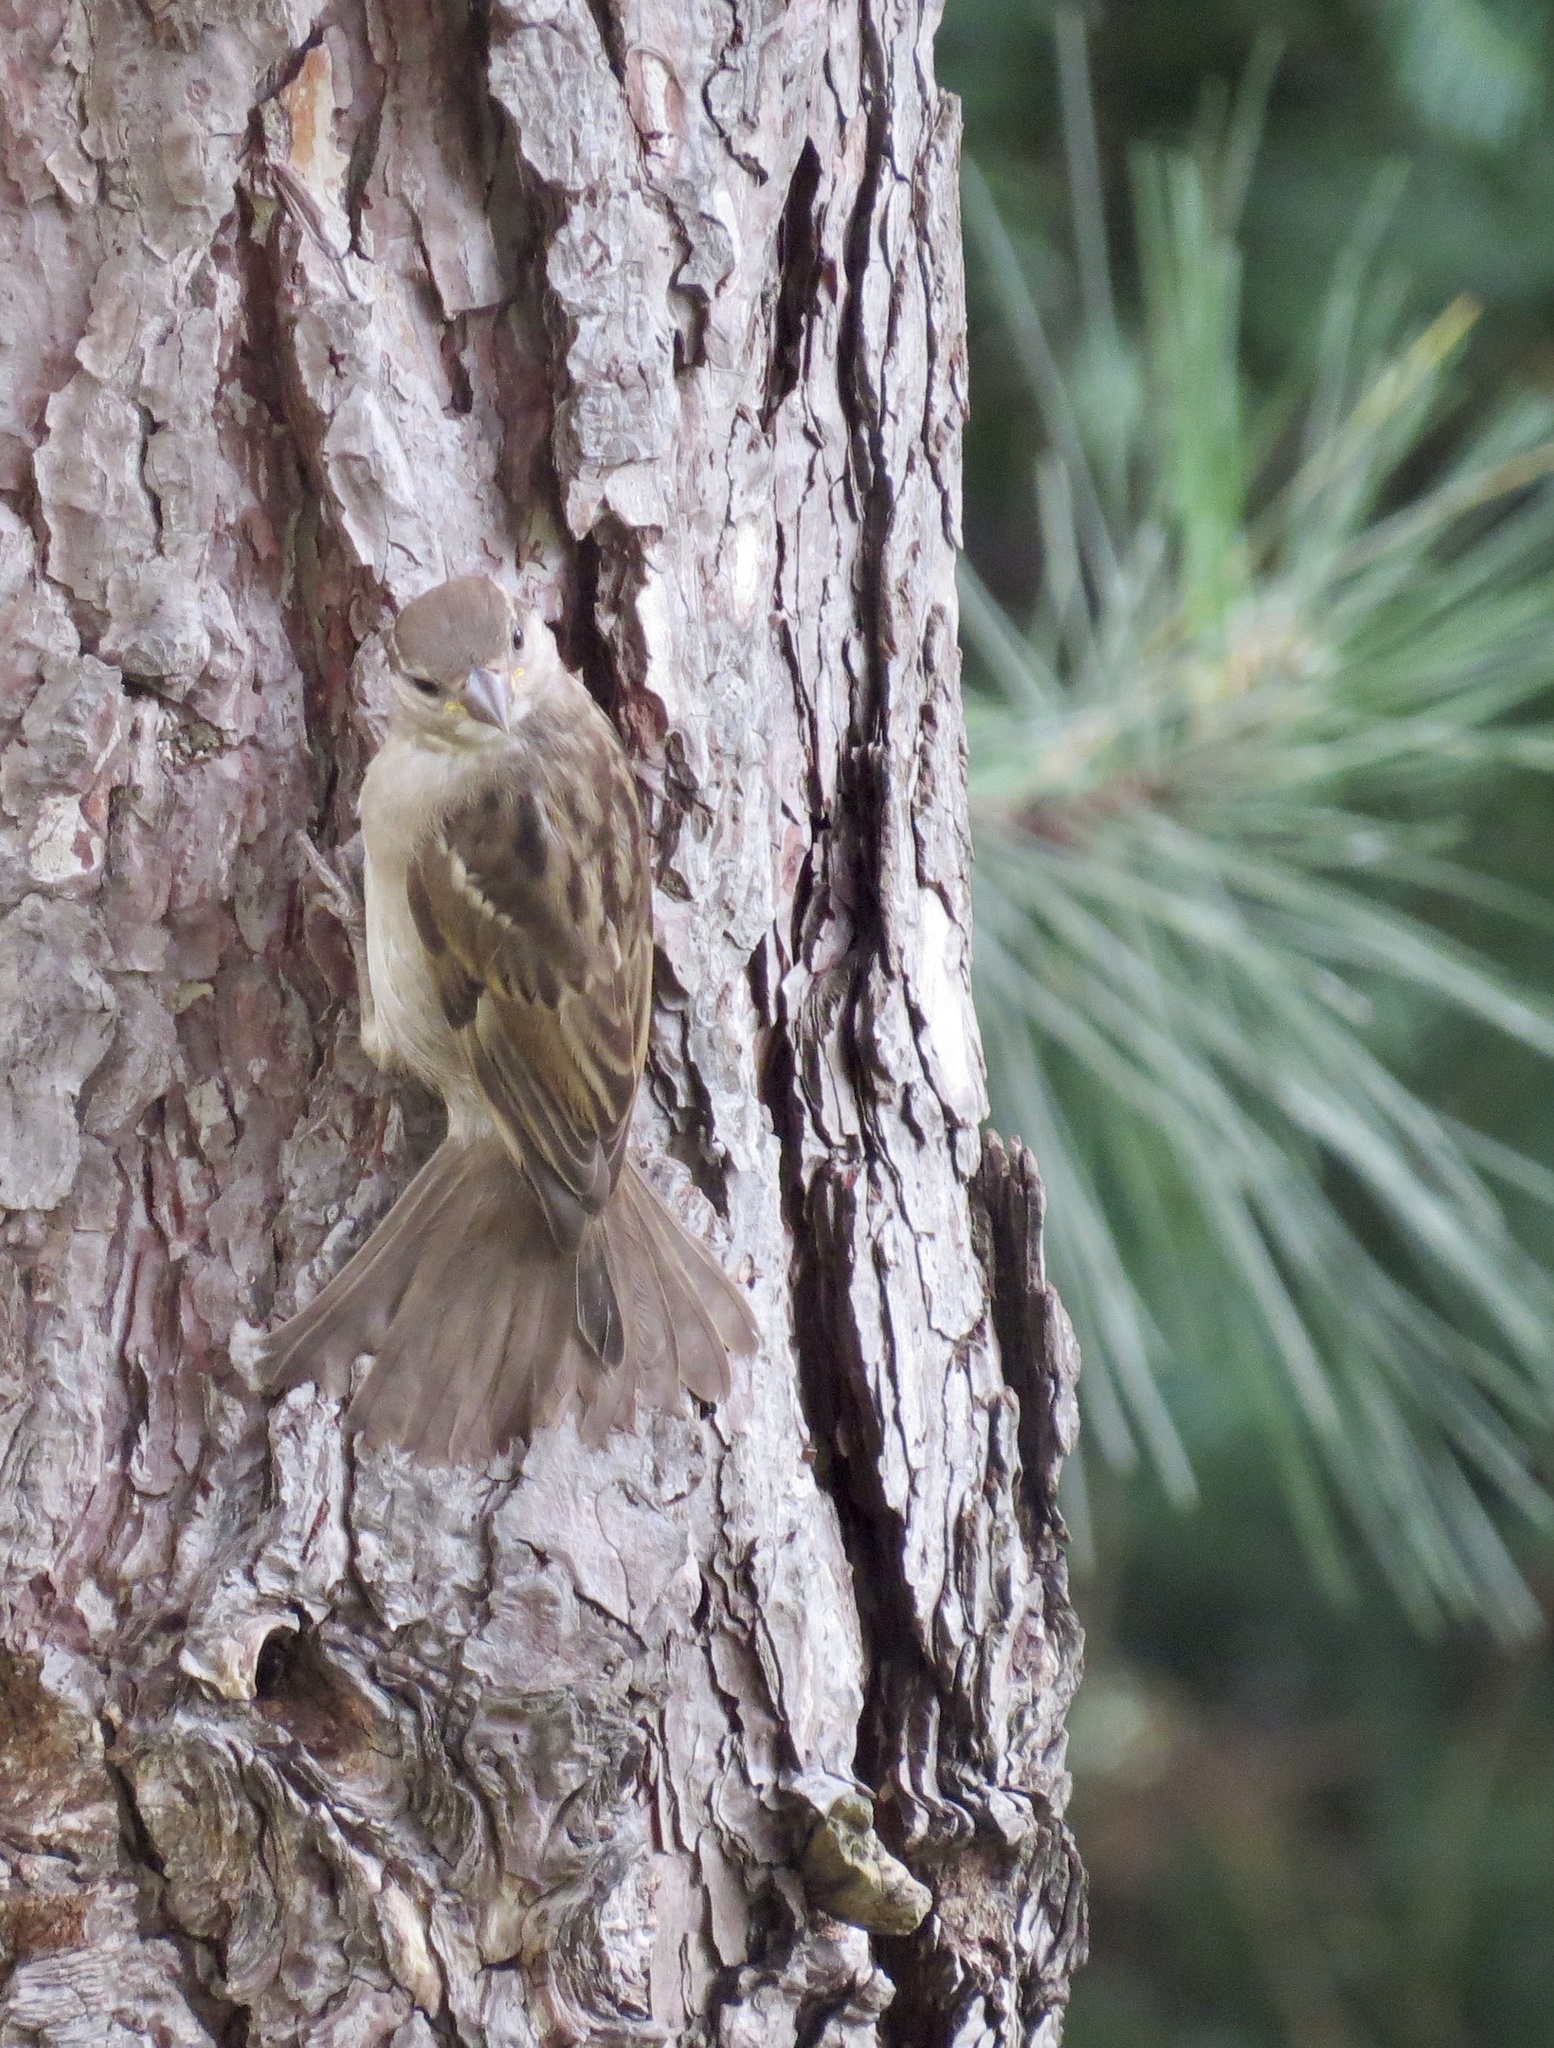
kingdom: Animalia
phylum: Chordata
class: Aves
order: Passeriformes
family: Passeridae
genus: Passer
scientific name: Passer domesticus
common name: House sparrow
